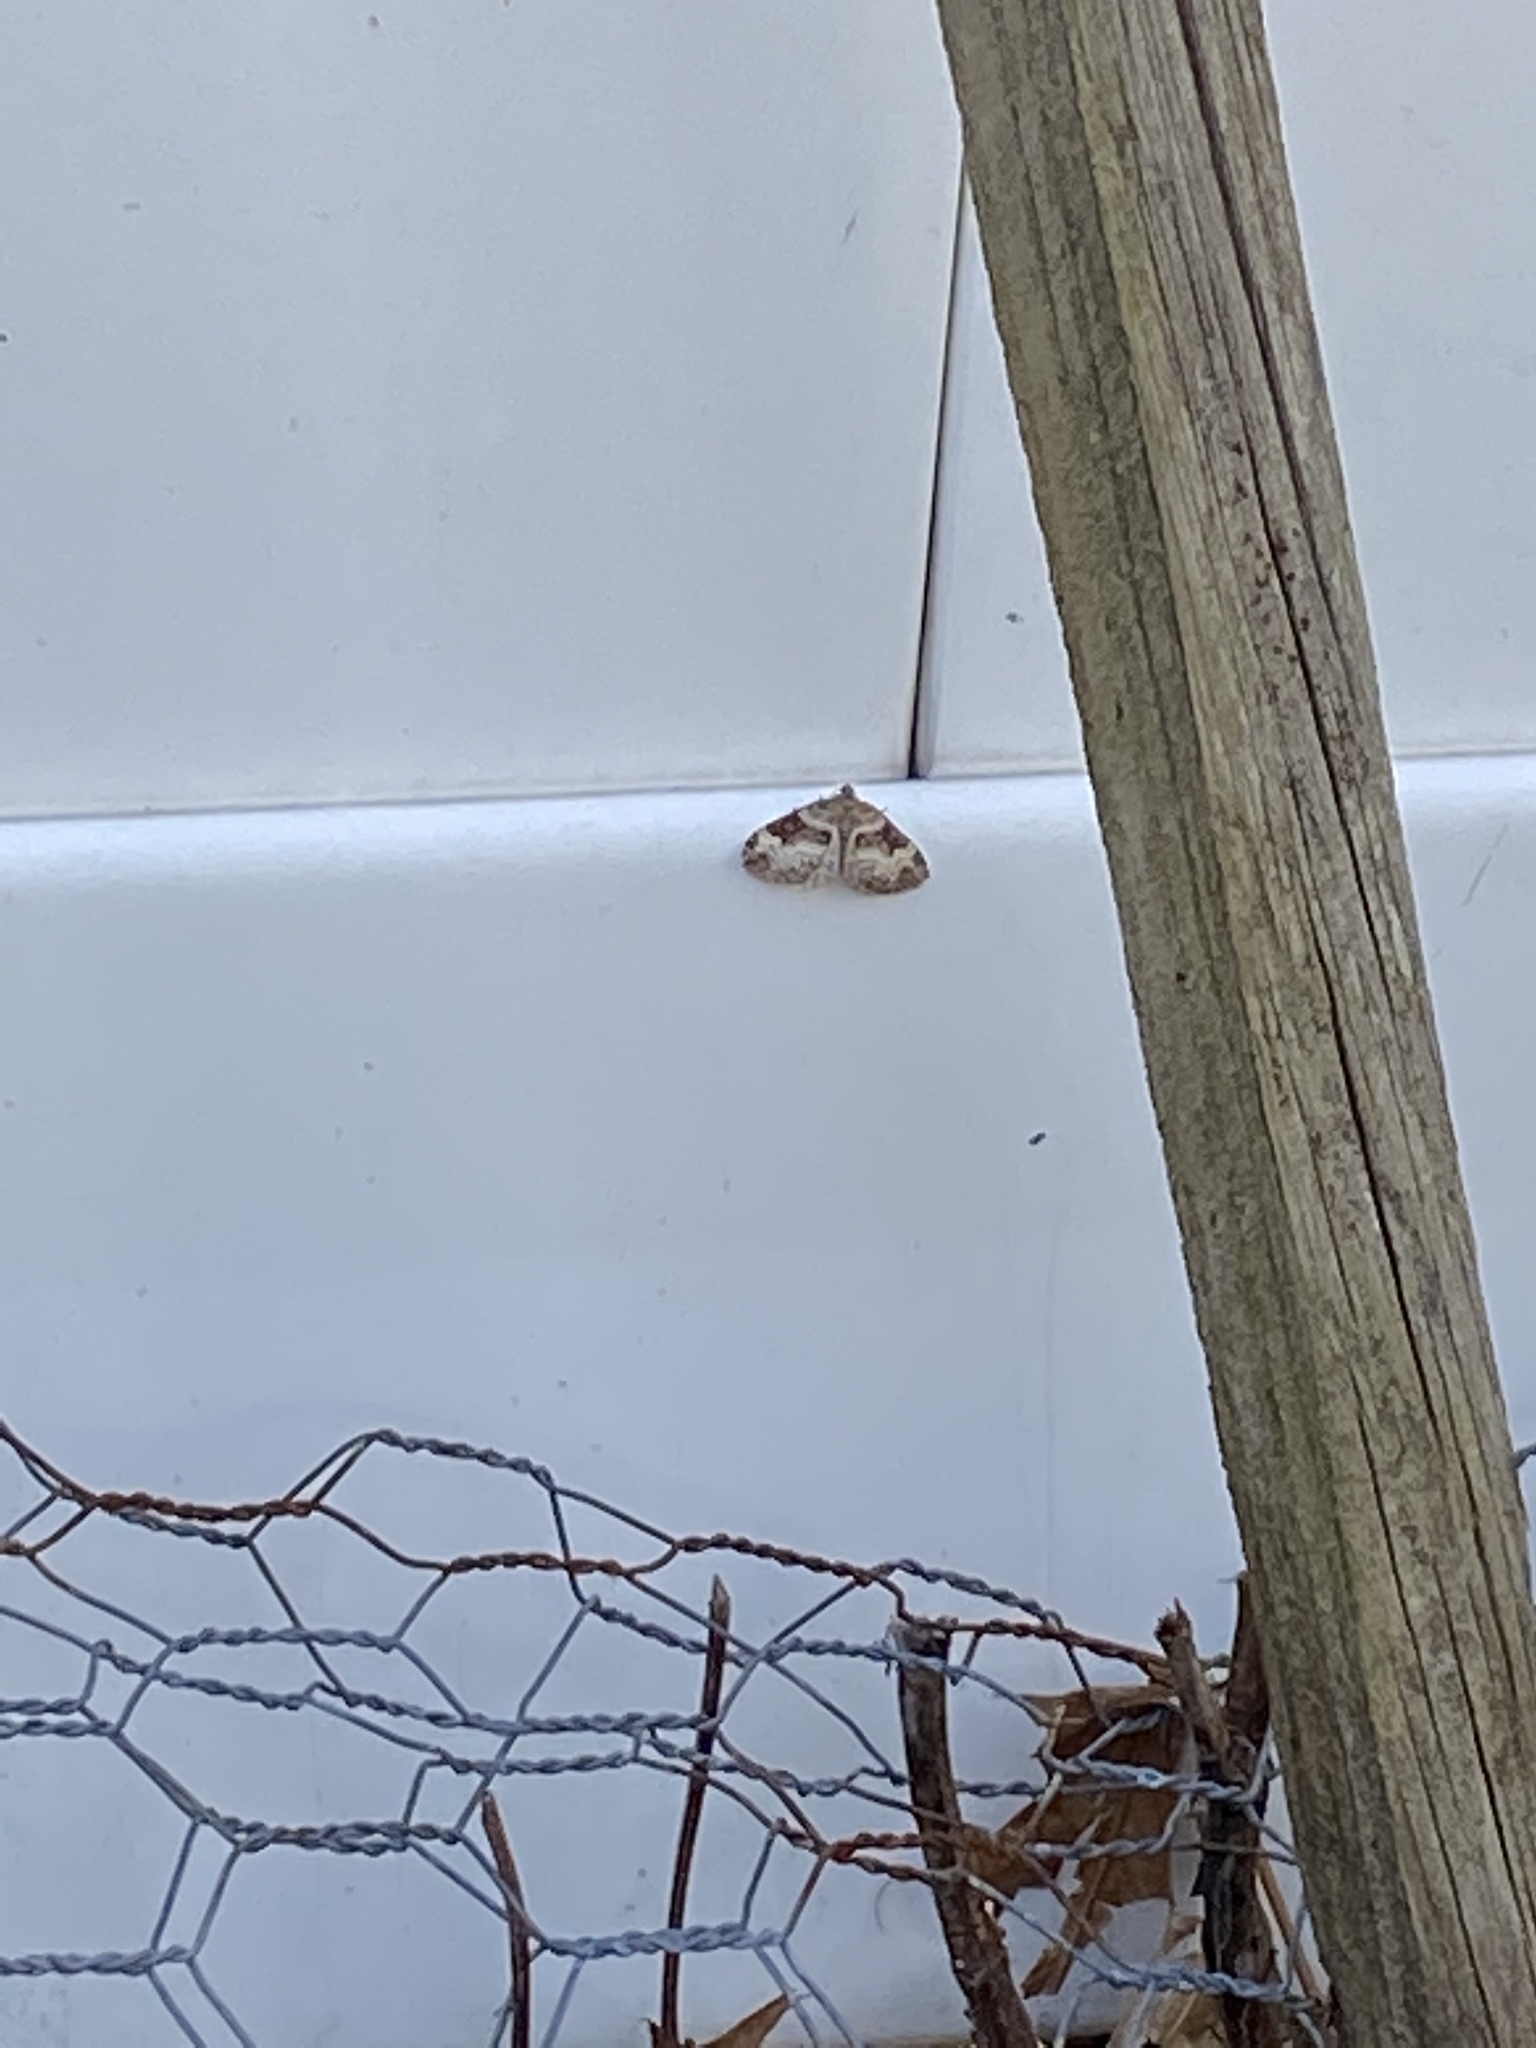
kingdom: Animalia
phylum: Arthropoda
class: Insecta
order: Lepidoptera
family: Geometridae
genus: Epirrhoe
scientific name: Epirrhoe alternata
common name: Common carpet
